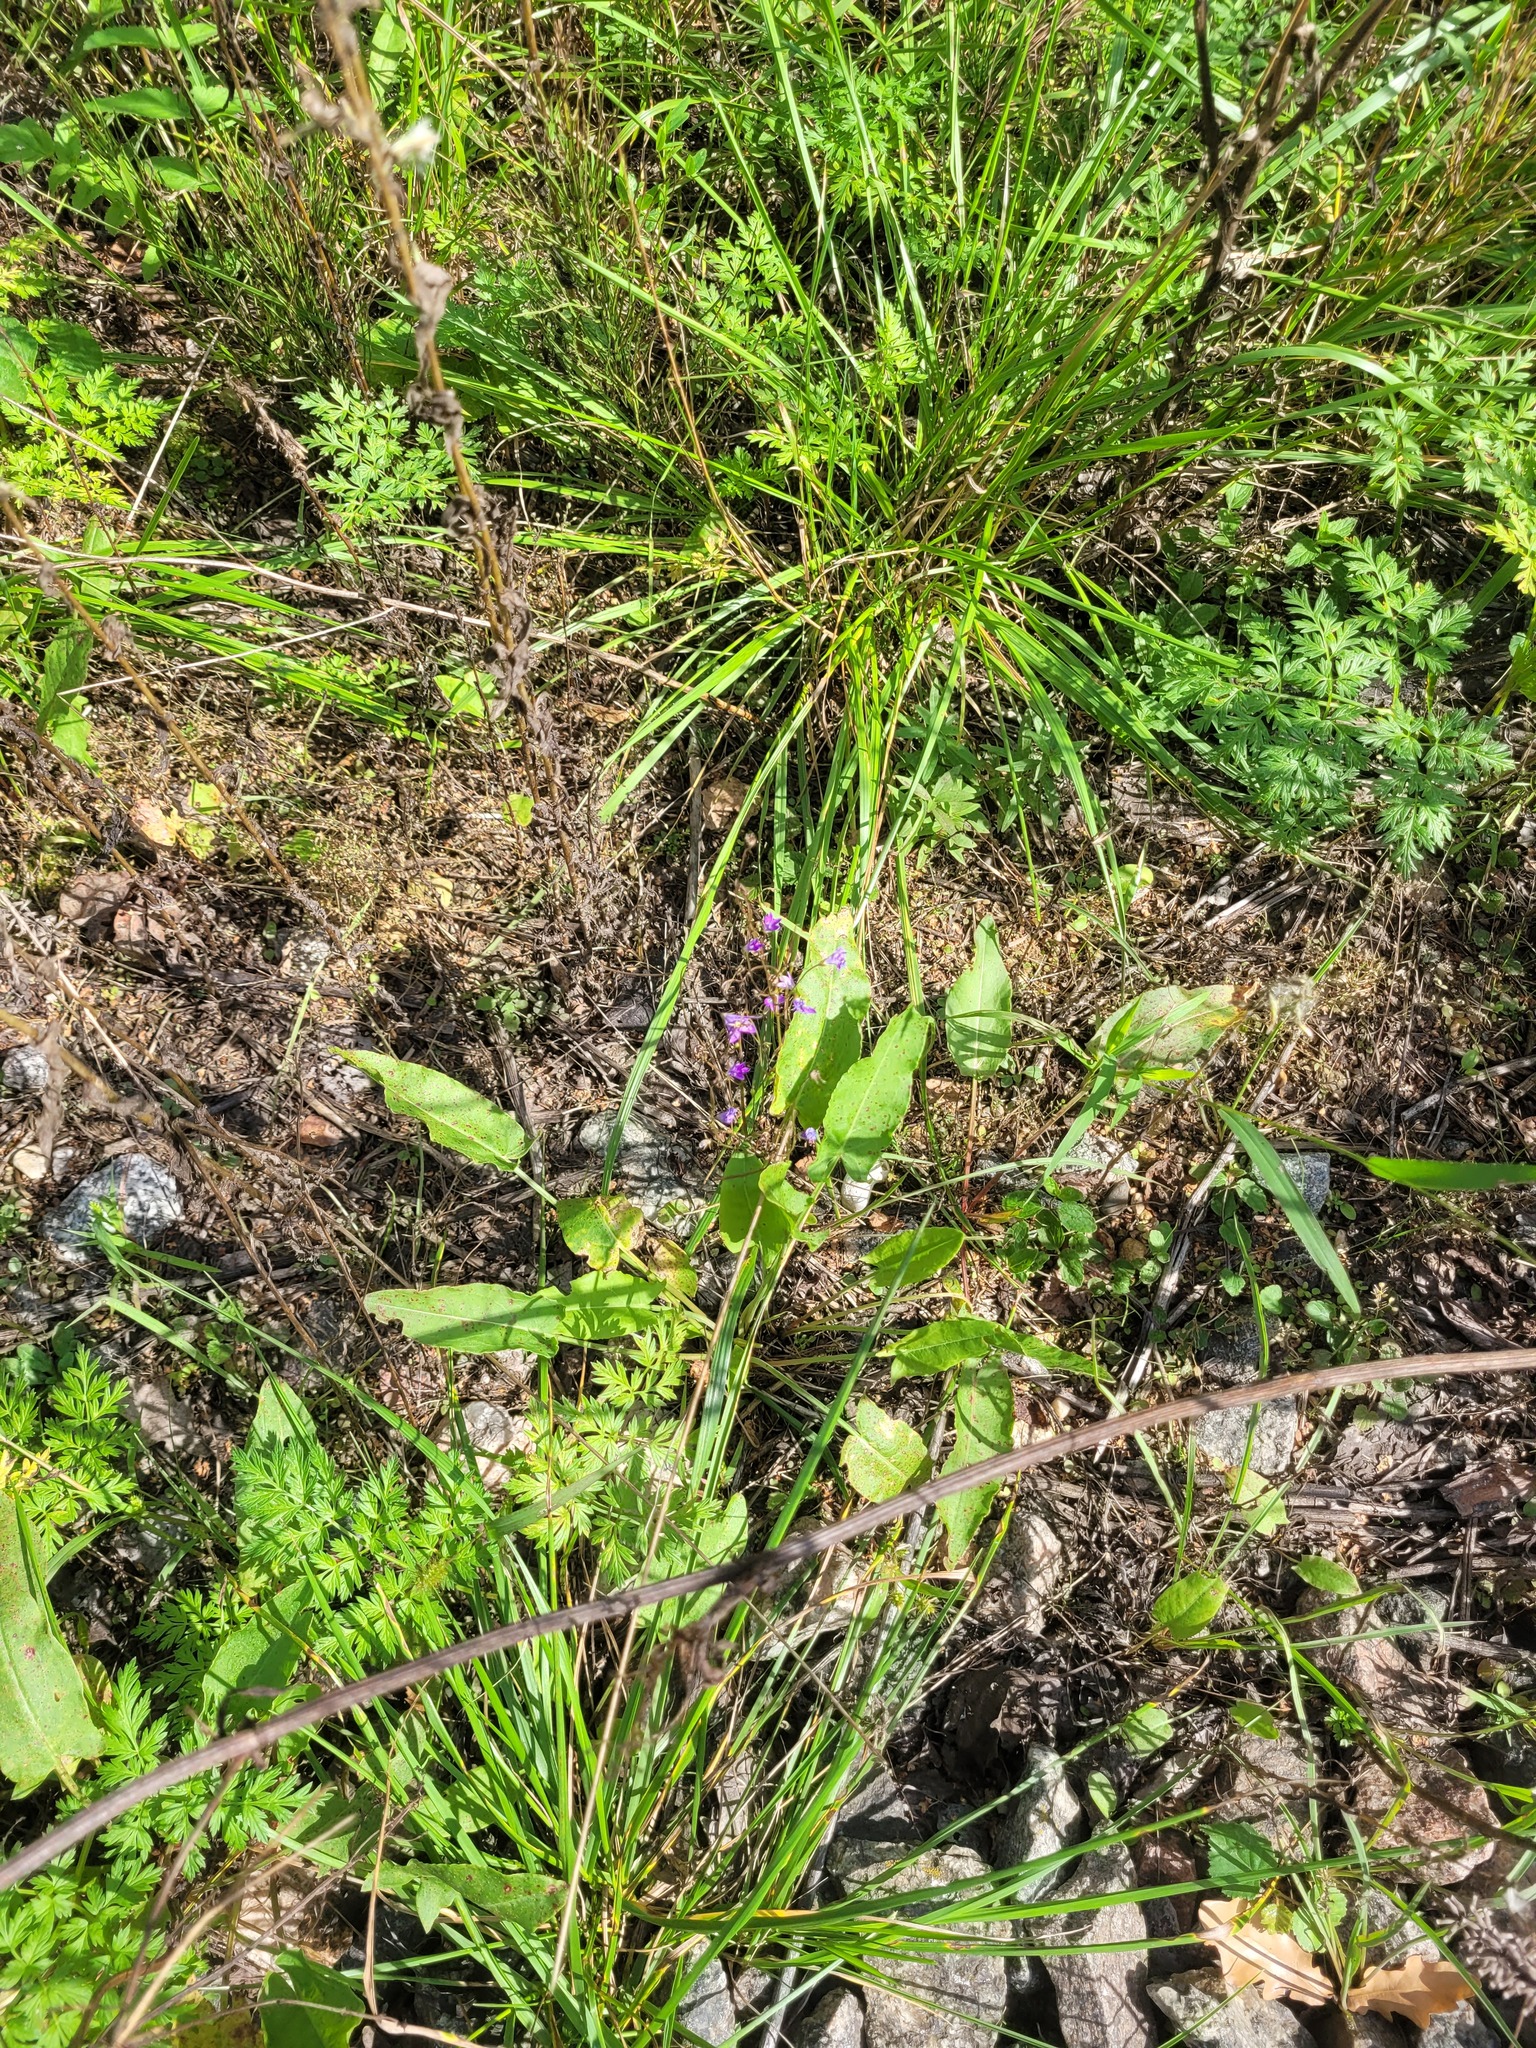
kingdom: Plantae
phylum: Tracheophyta
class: Magnoliopsida
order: Asterales
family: Campanulaceae
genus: Campanula
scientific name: Campanula patula
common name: Spreading bellflower
